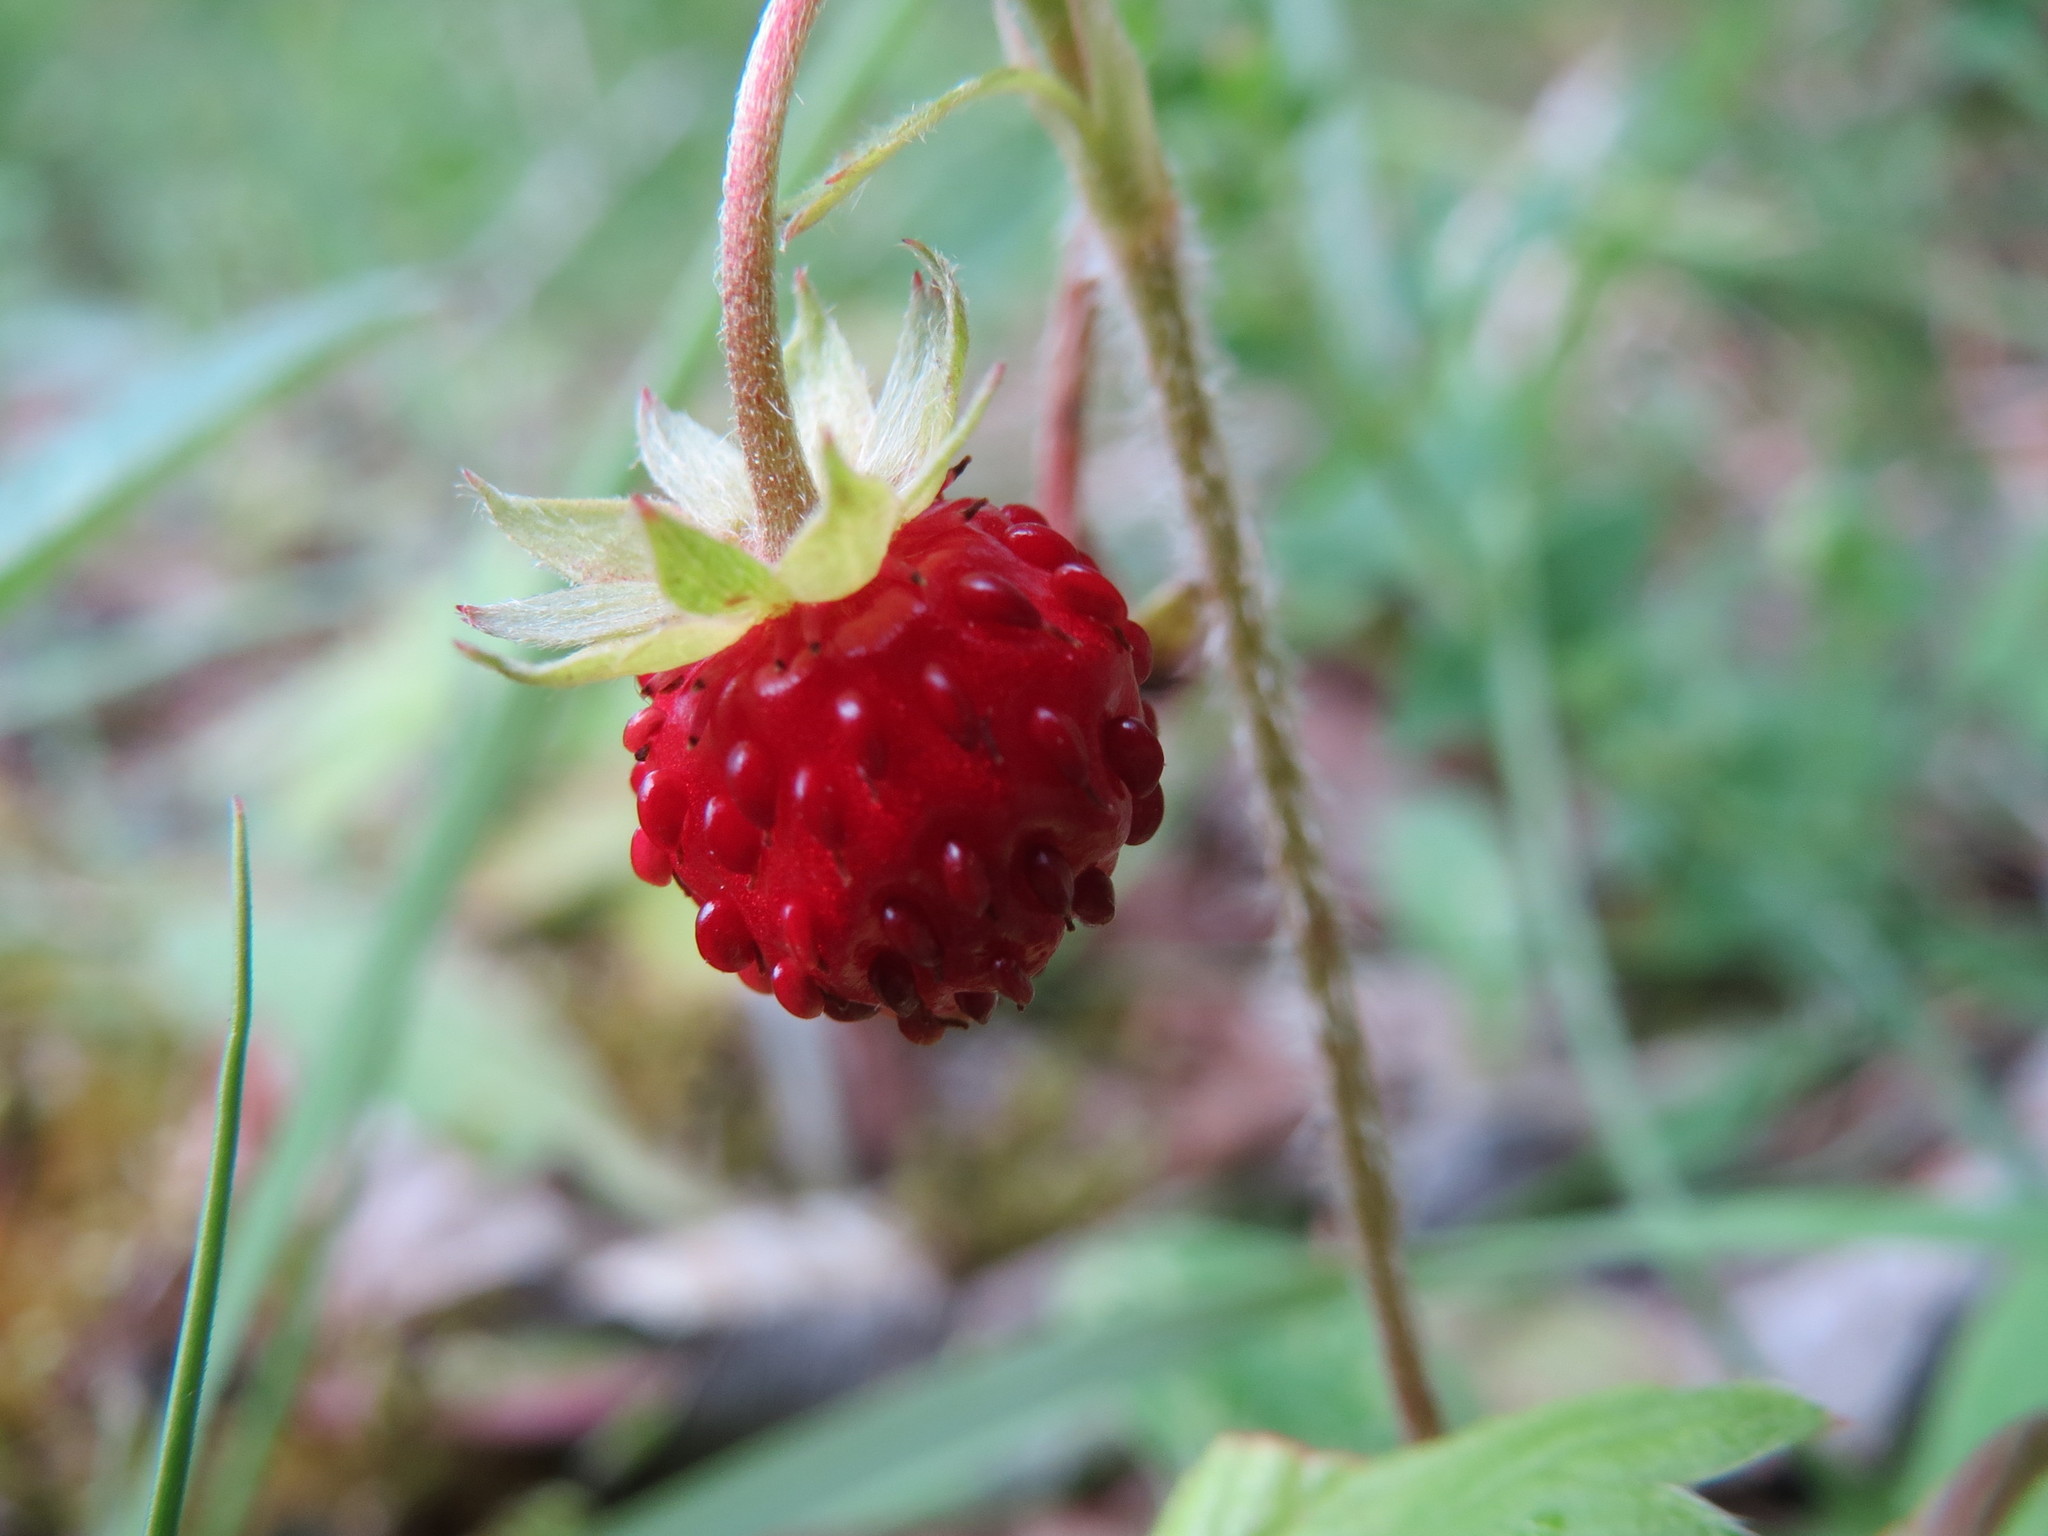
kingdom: Plantae
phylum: Tracheophyta
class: Magnoliopsida
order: Rosales
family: Rosaceae
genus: Fragaria
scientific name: Fragaria vesca
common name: Wild strawberry
